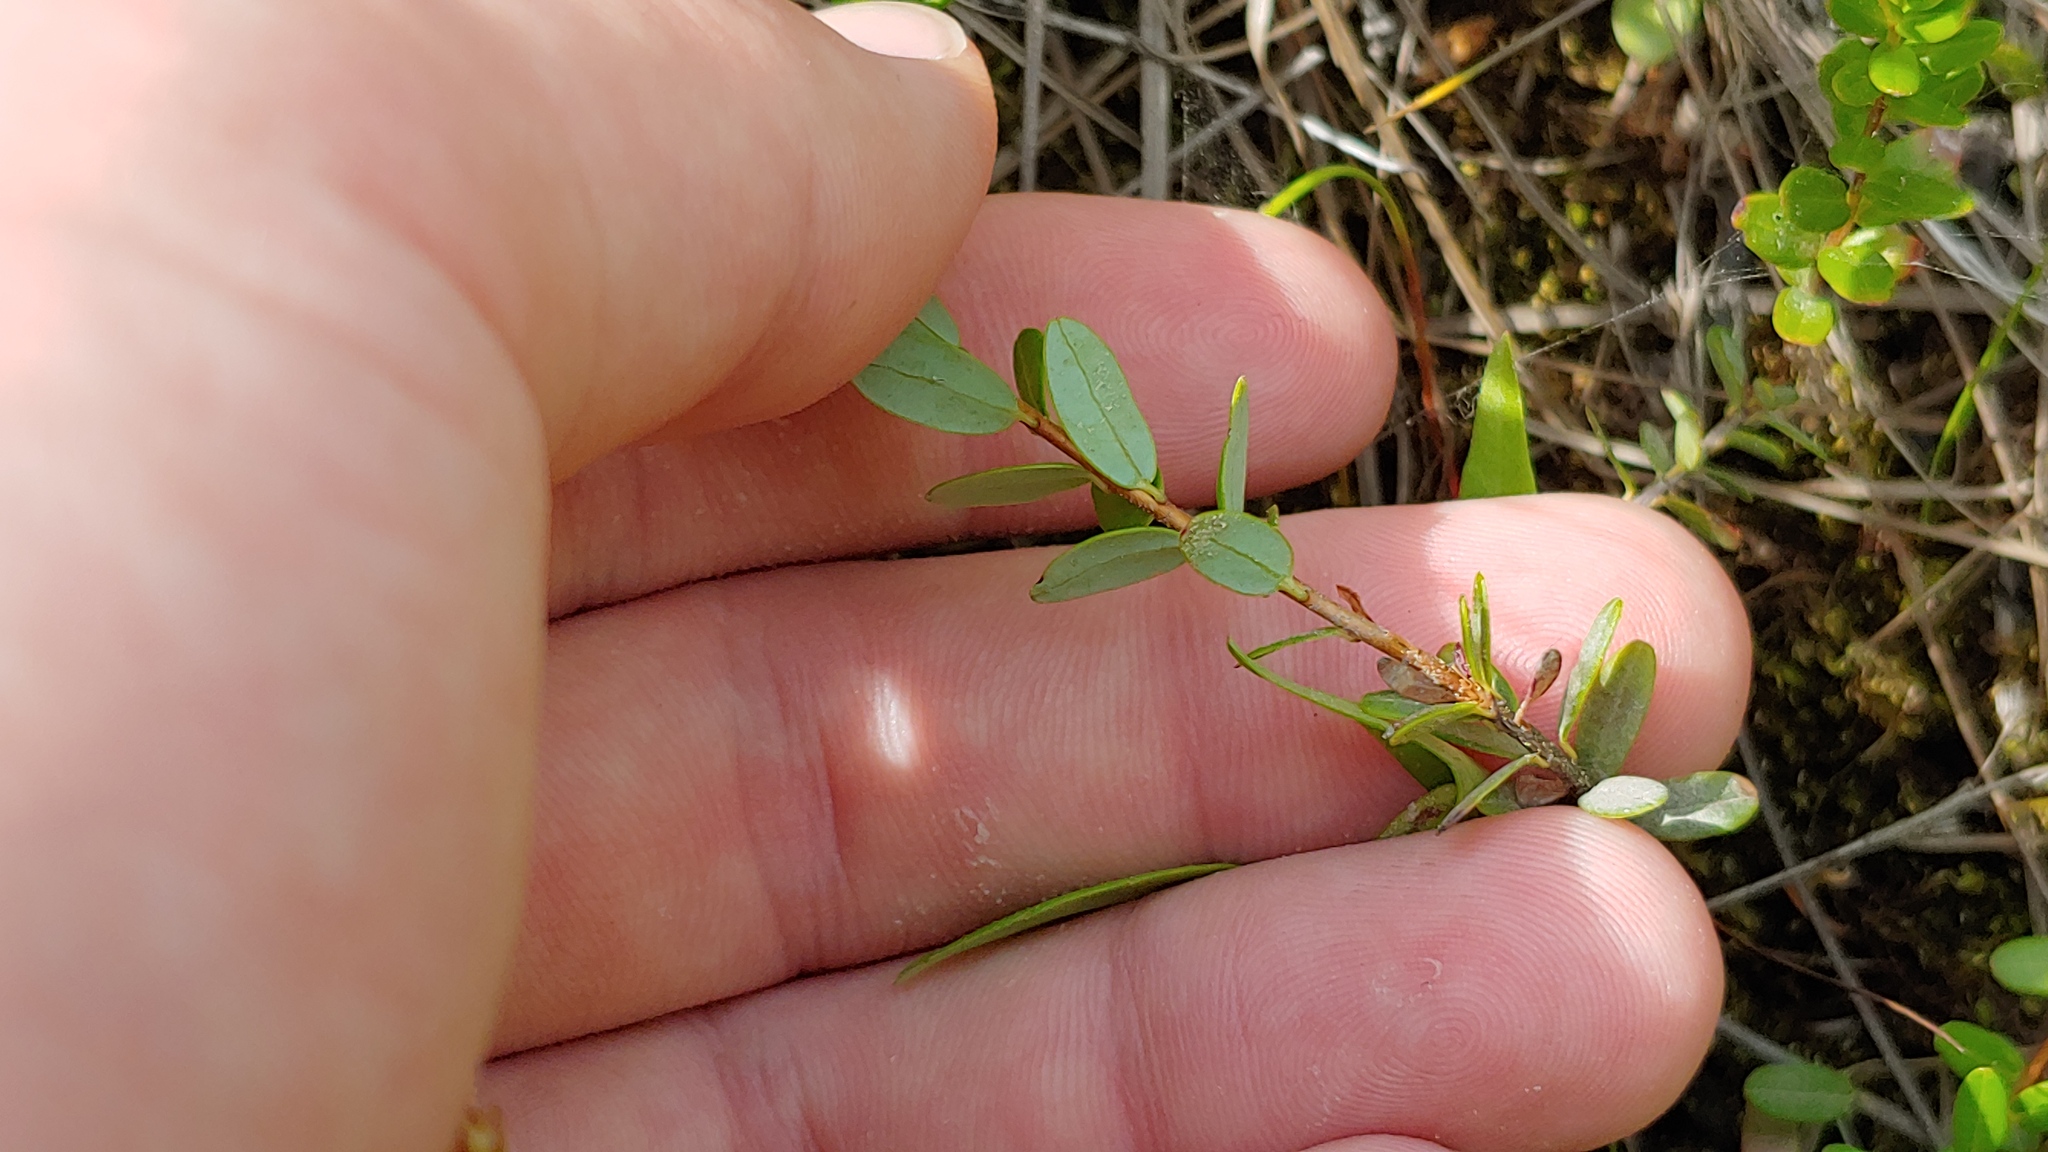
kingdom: Plantae
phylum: Tracheophyta
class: Magnoliopsida
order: Ericales
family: Ericaceae
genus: Vaccinium
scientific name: Vaccinium macrocarpon
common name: American cranberry
